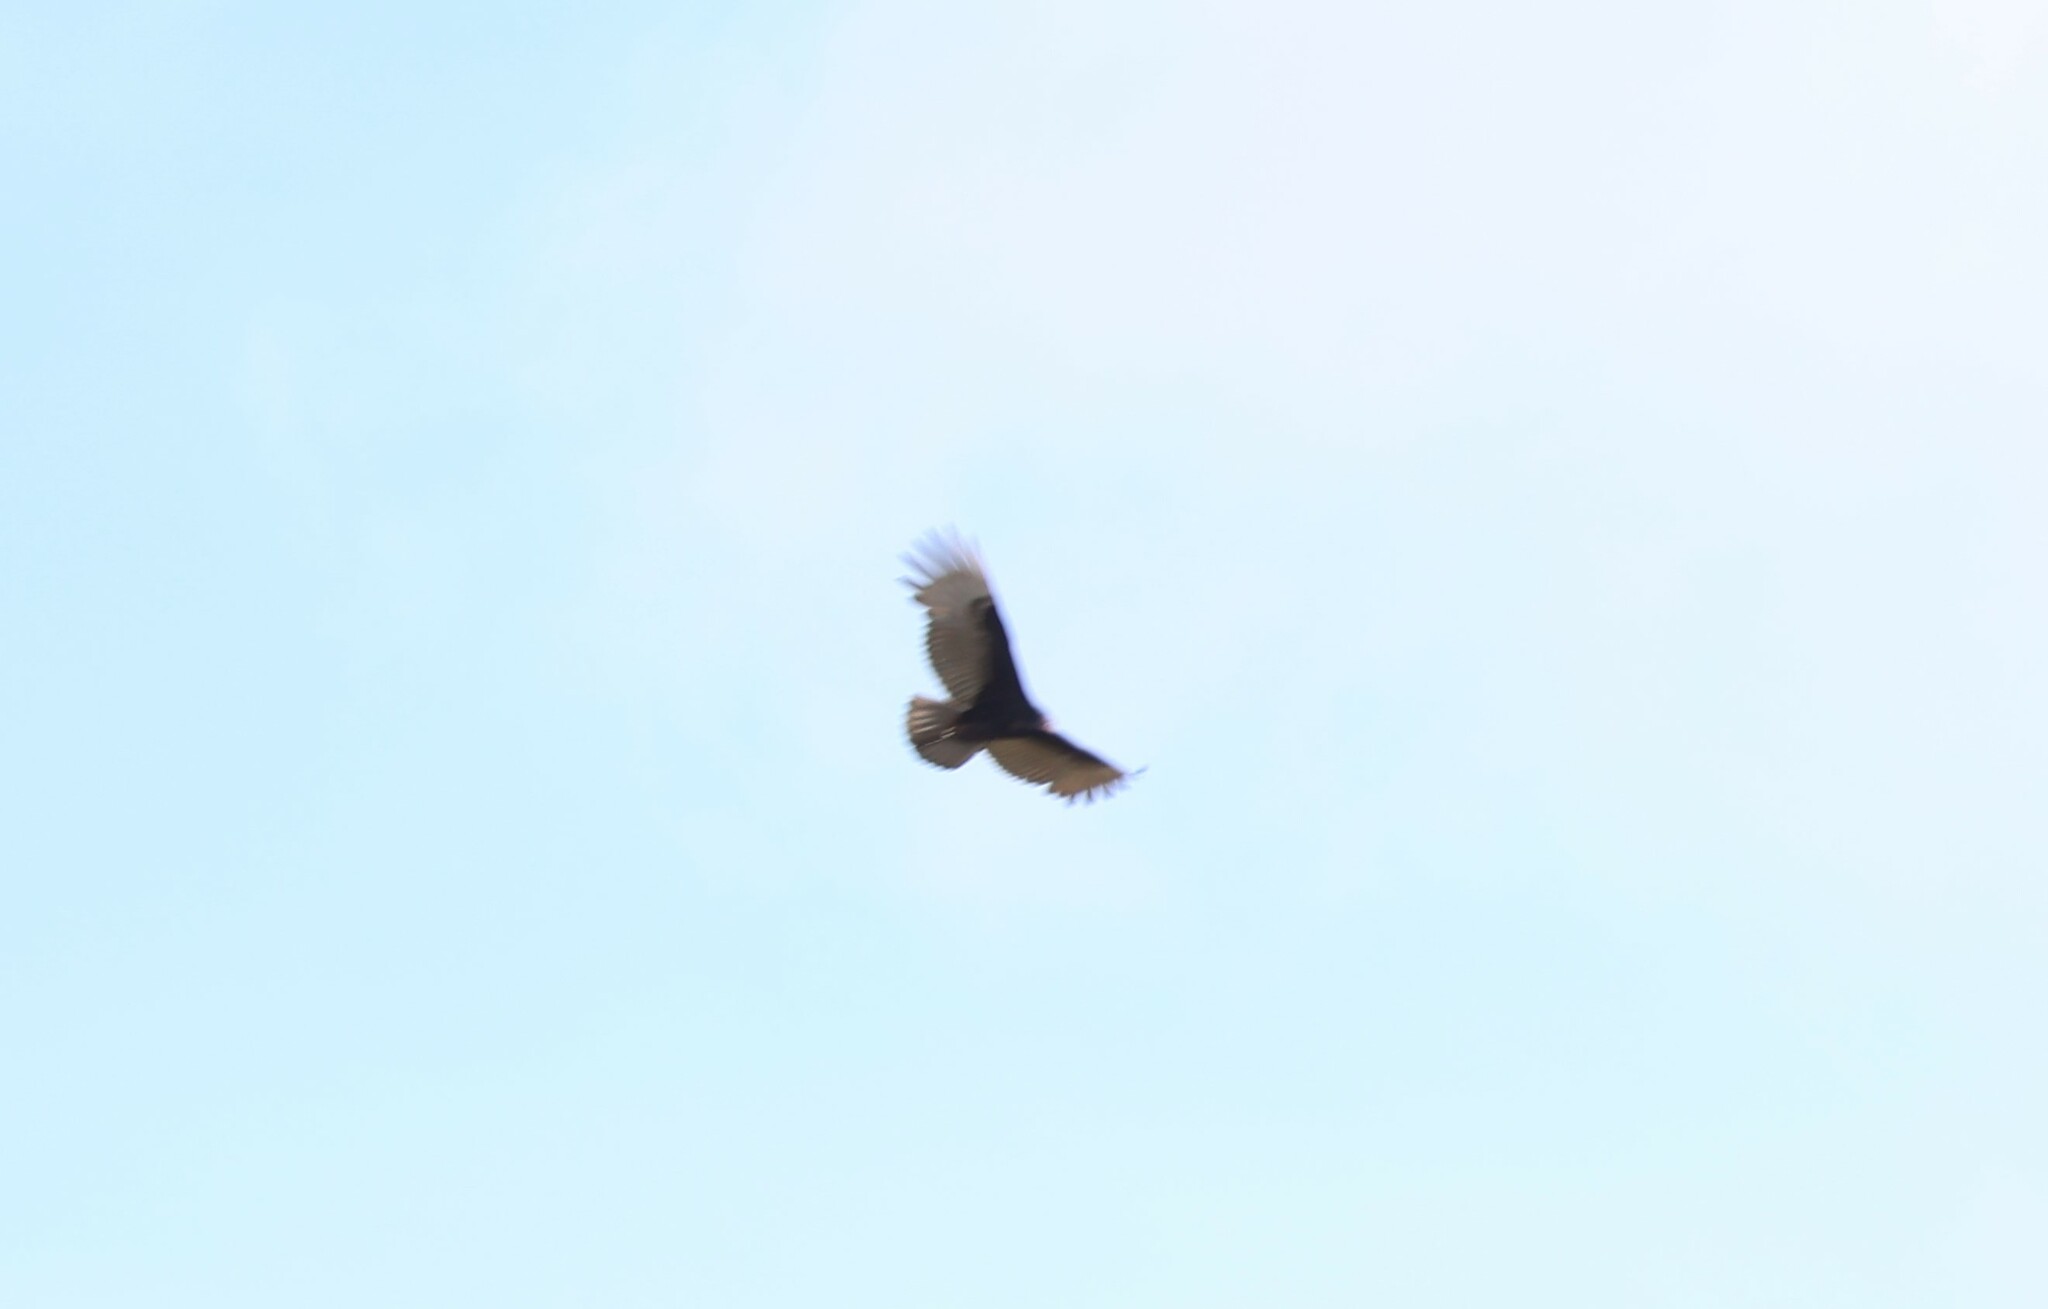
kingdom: Animalia
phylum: Chordata
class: Aves
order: Accipitriformes
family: Cathartidae
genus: Cathartes
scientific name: Cathartes aura
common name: Turkey vulture
